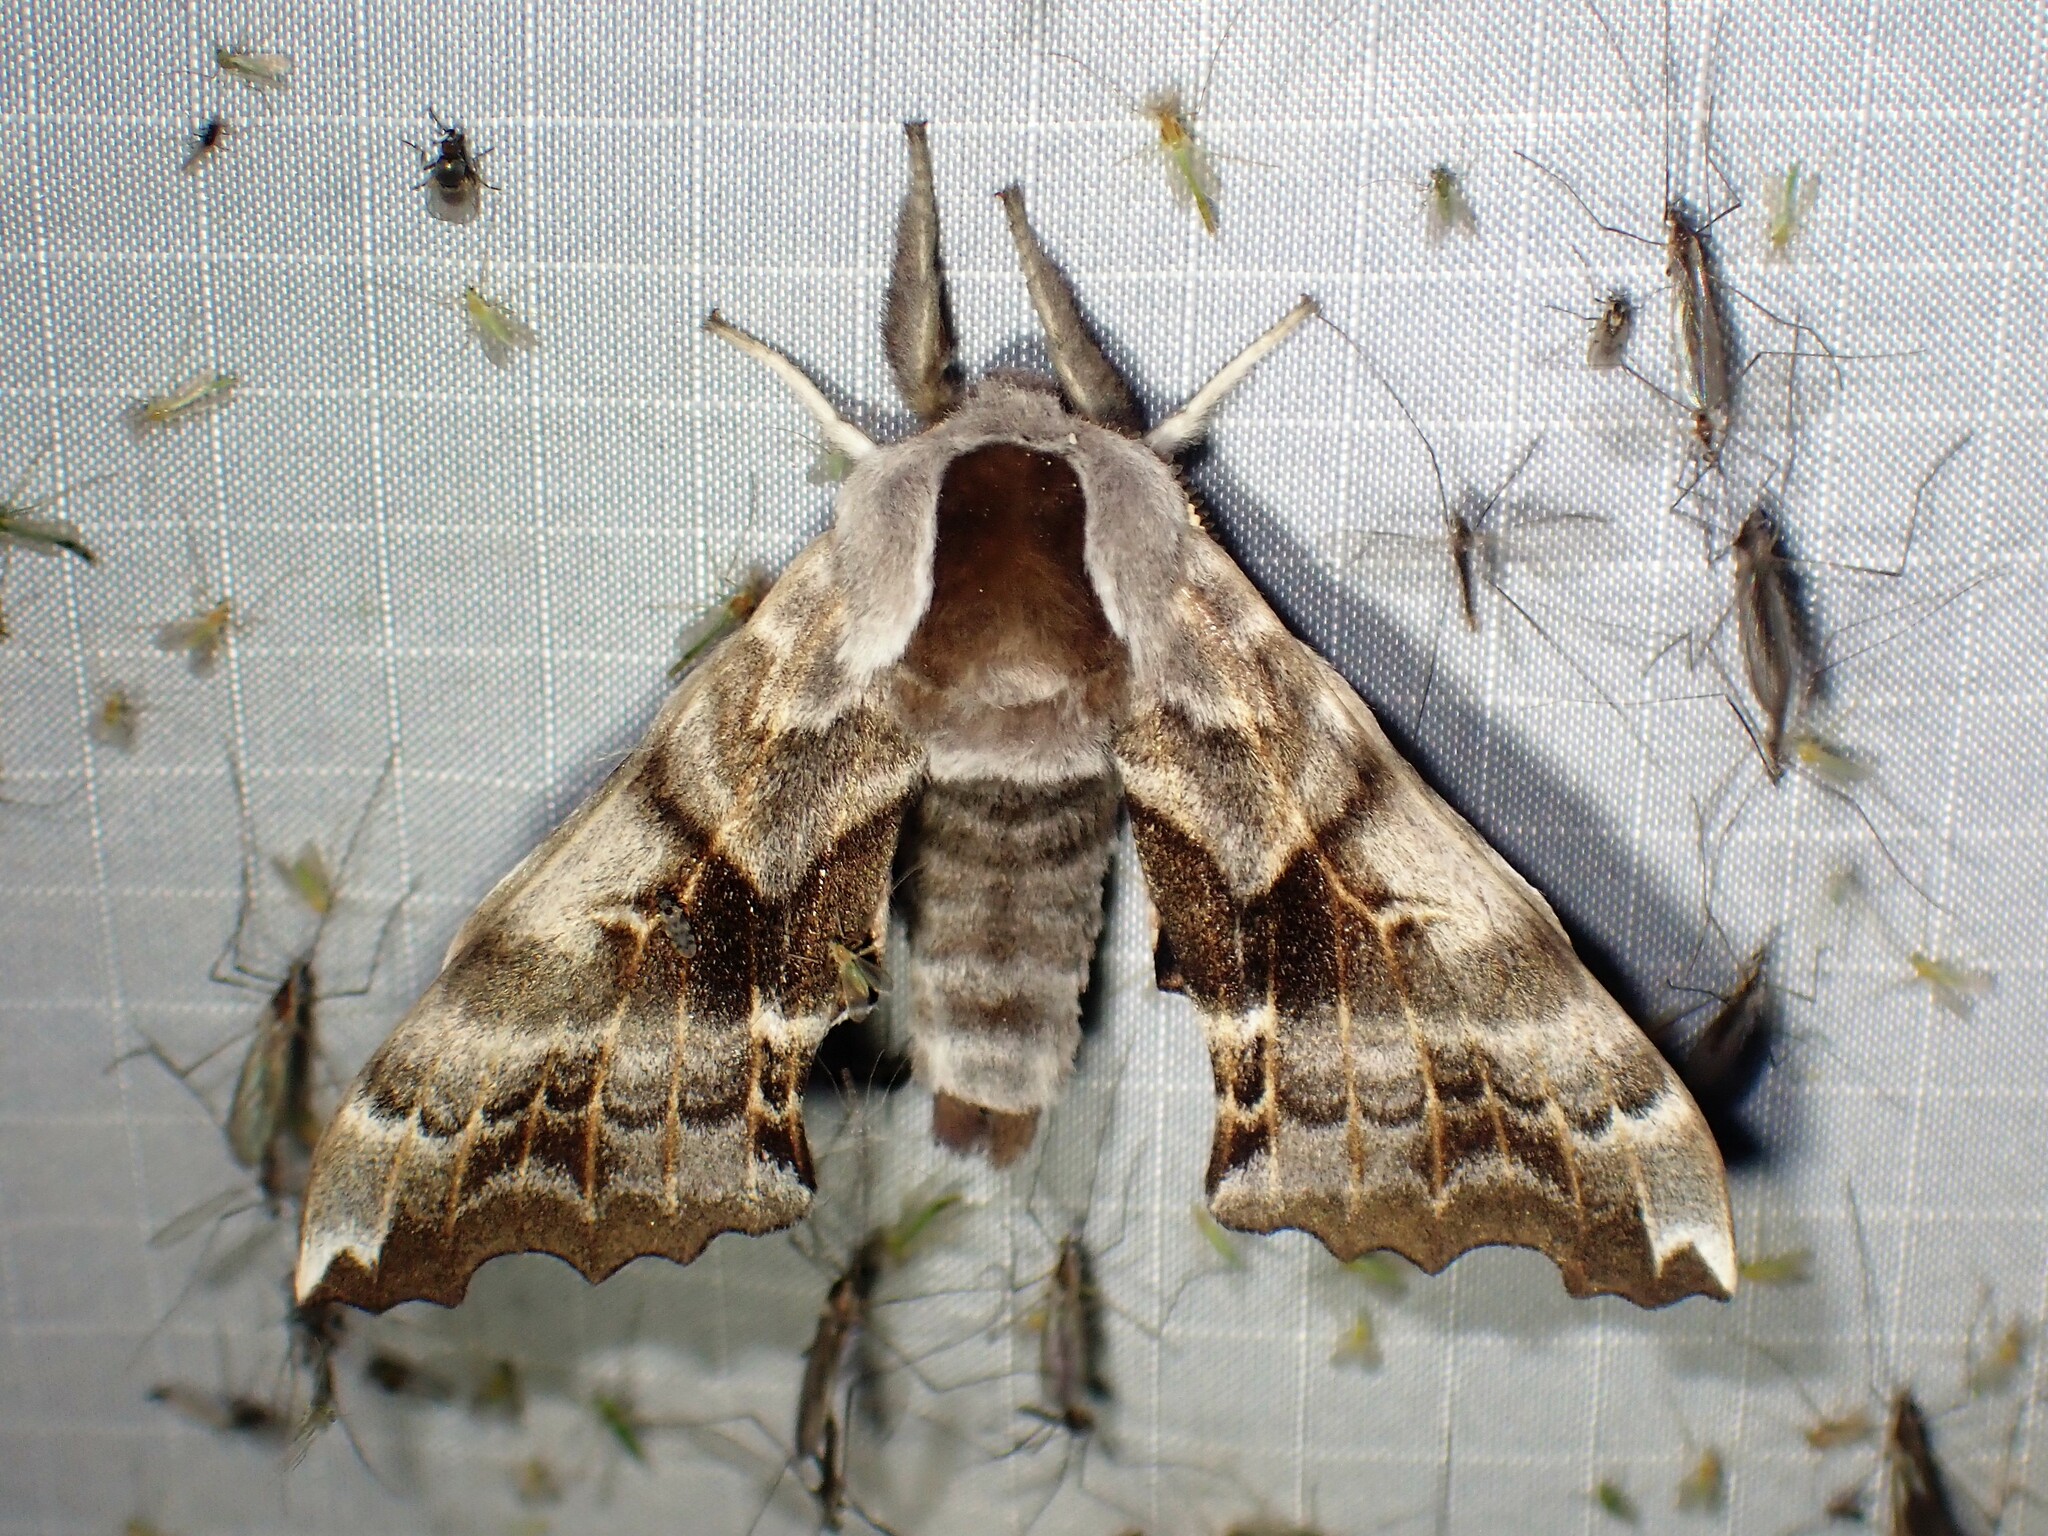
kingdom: Animalia
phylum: Arthropoda
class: Insecta
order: Lepidoptera
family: Sphingidae
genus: Smerinthus
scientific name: Smerinthus cerisyi
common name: Cerisy's sphinx moth
